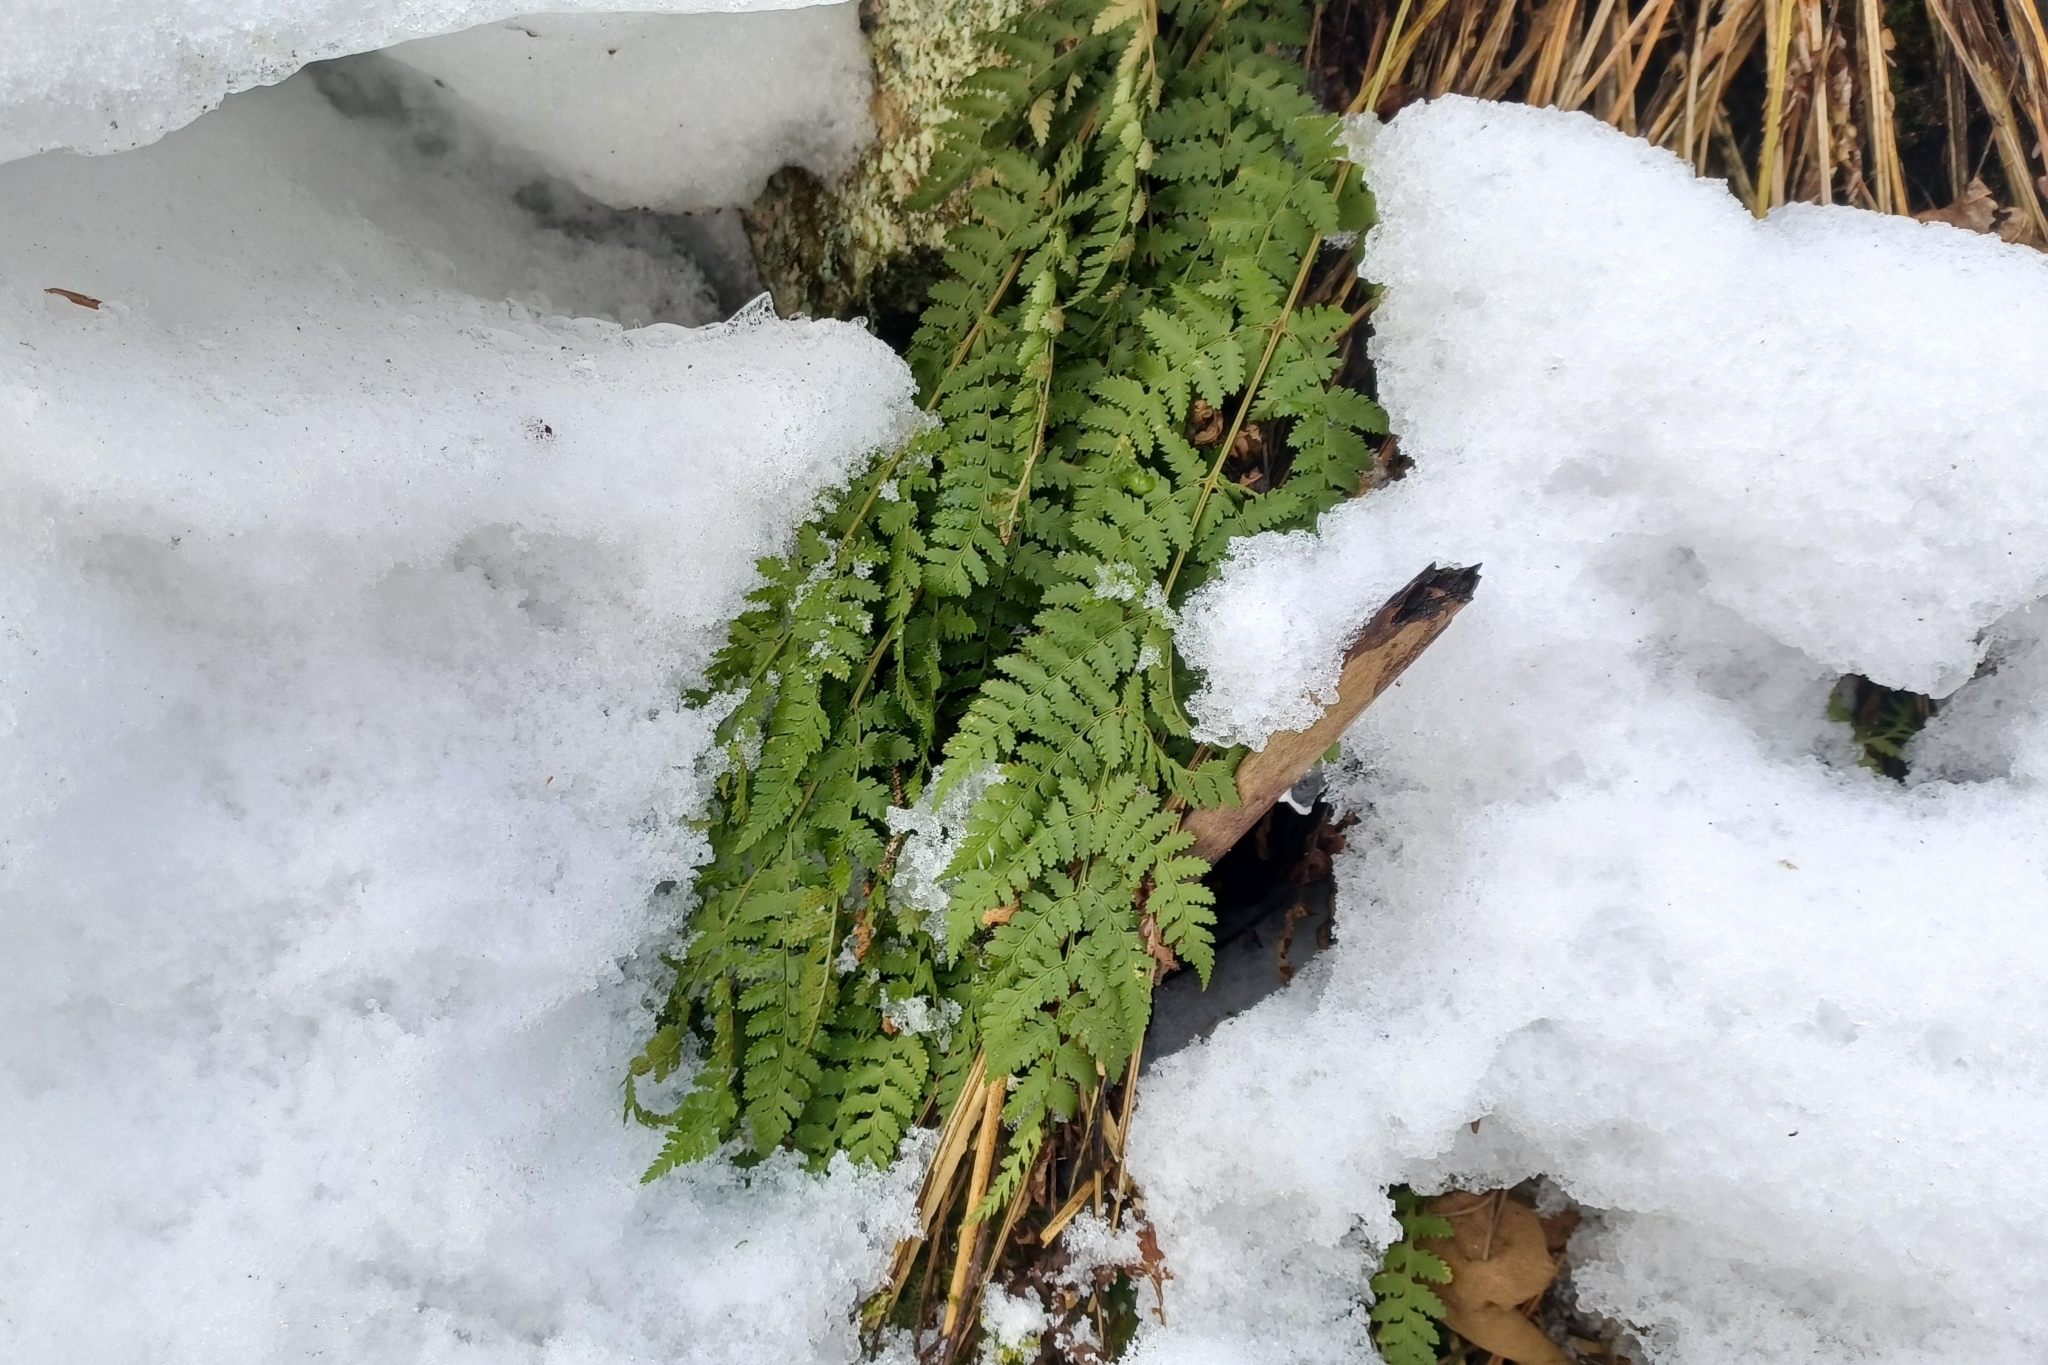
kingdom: Plantae
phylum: Tracheophyta
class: Polypodiopsida
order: Polypodiales
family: Dryopteridaceae
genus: Dryopteris
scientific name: Dryopteris intermedia
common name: Evergreen wood fern
